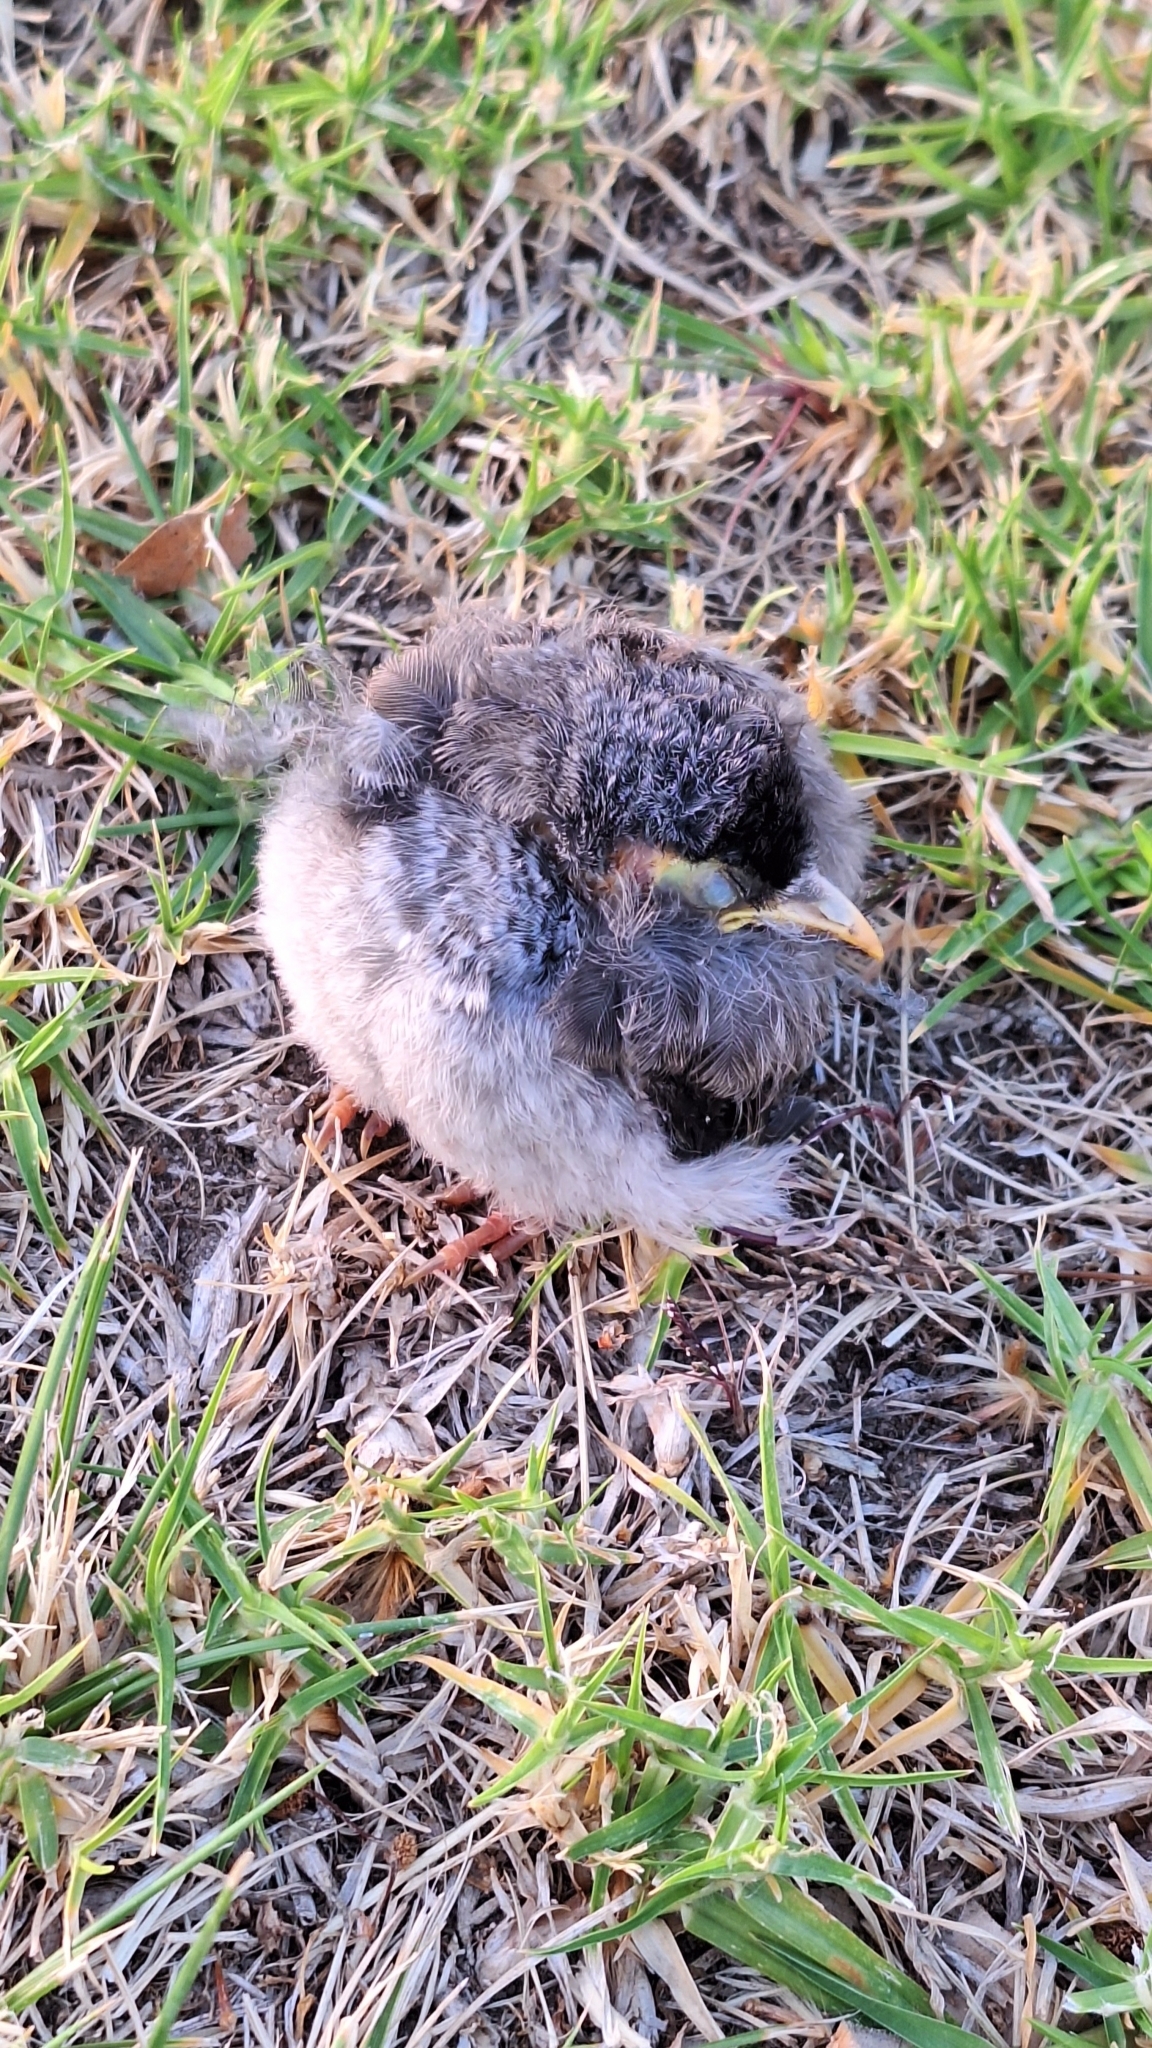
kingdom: Animalia
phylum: Chordata
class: Aves
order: Passeriformes
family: Meliphagidae
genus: Manorina
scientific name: Manorina melanocephala
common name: Noisy miner
